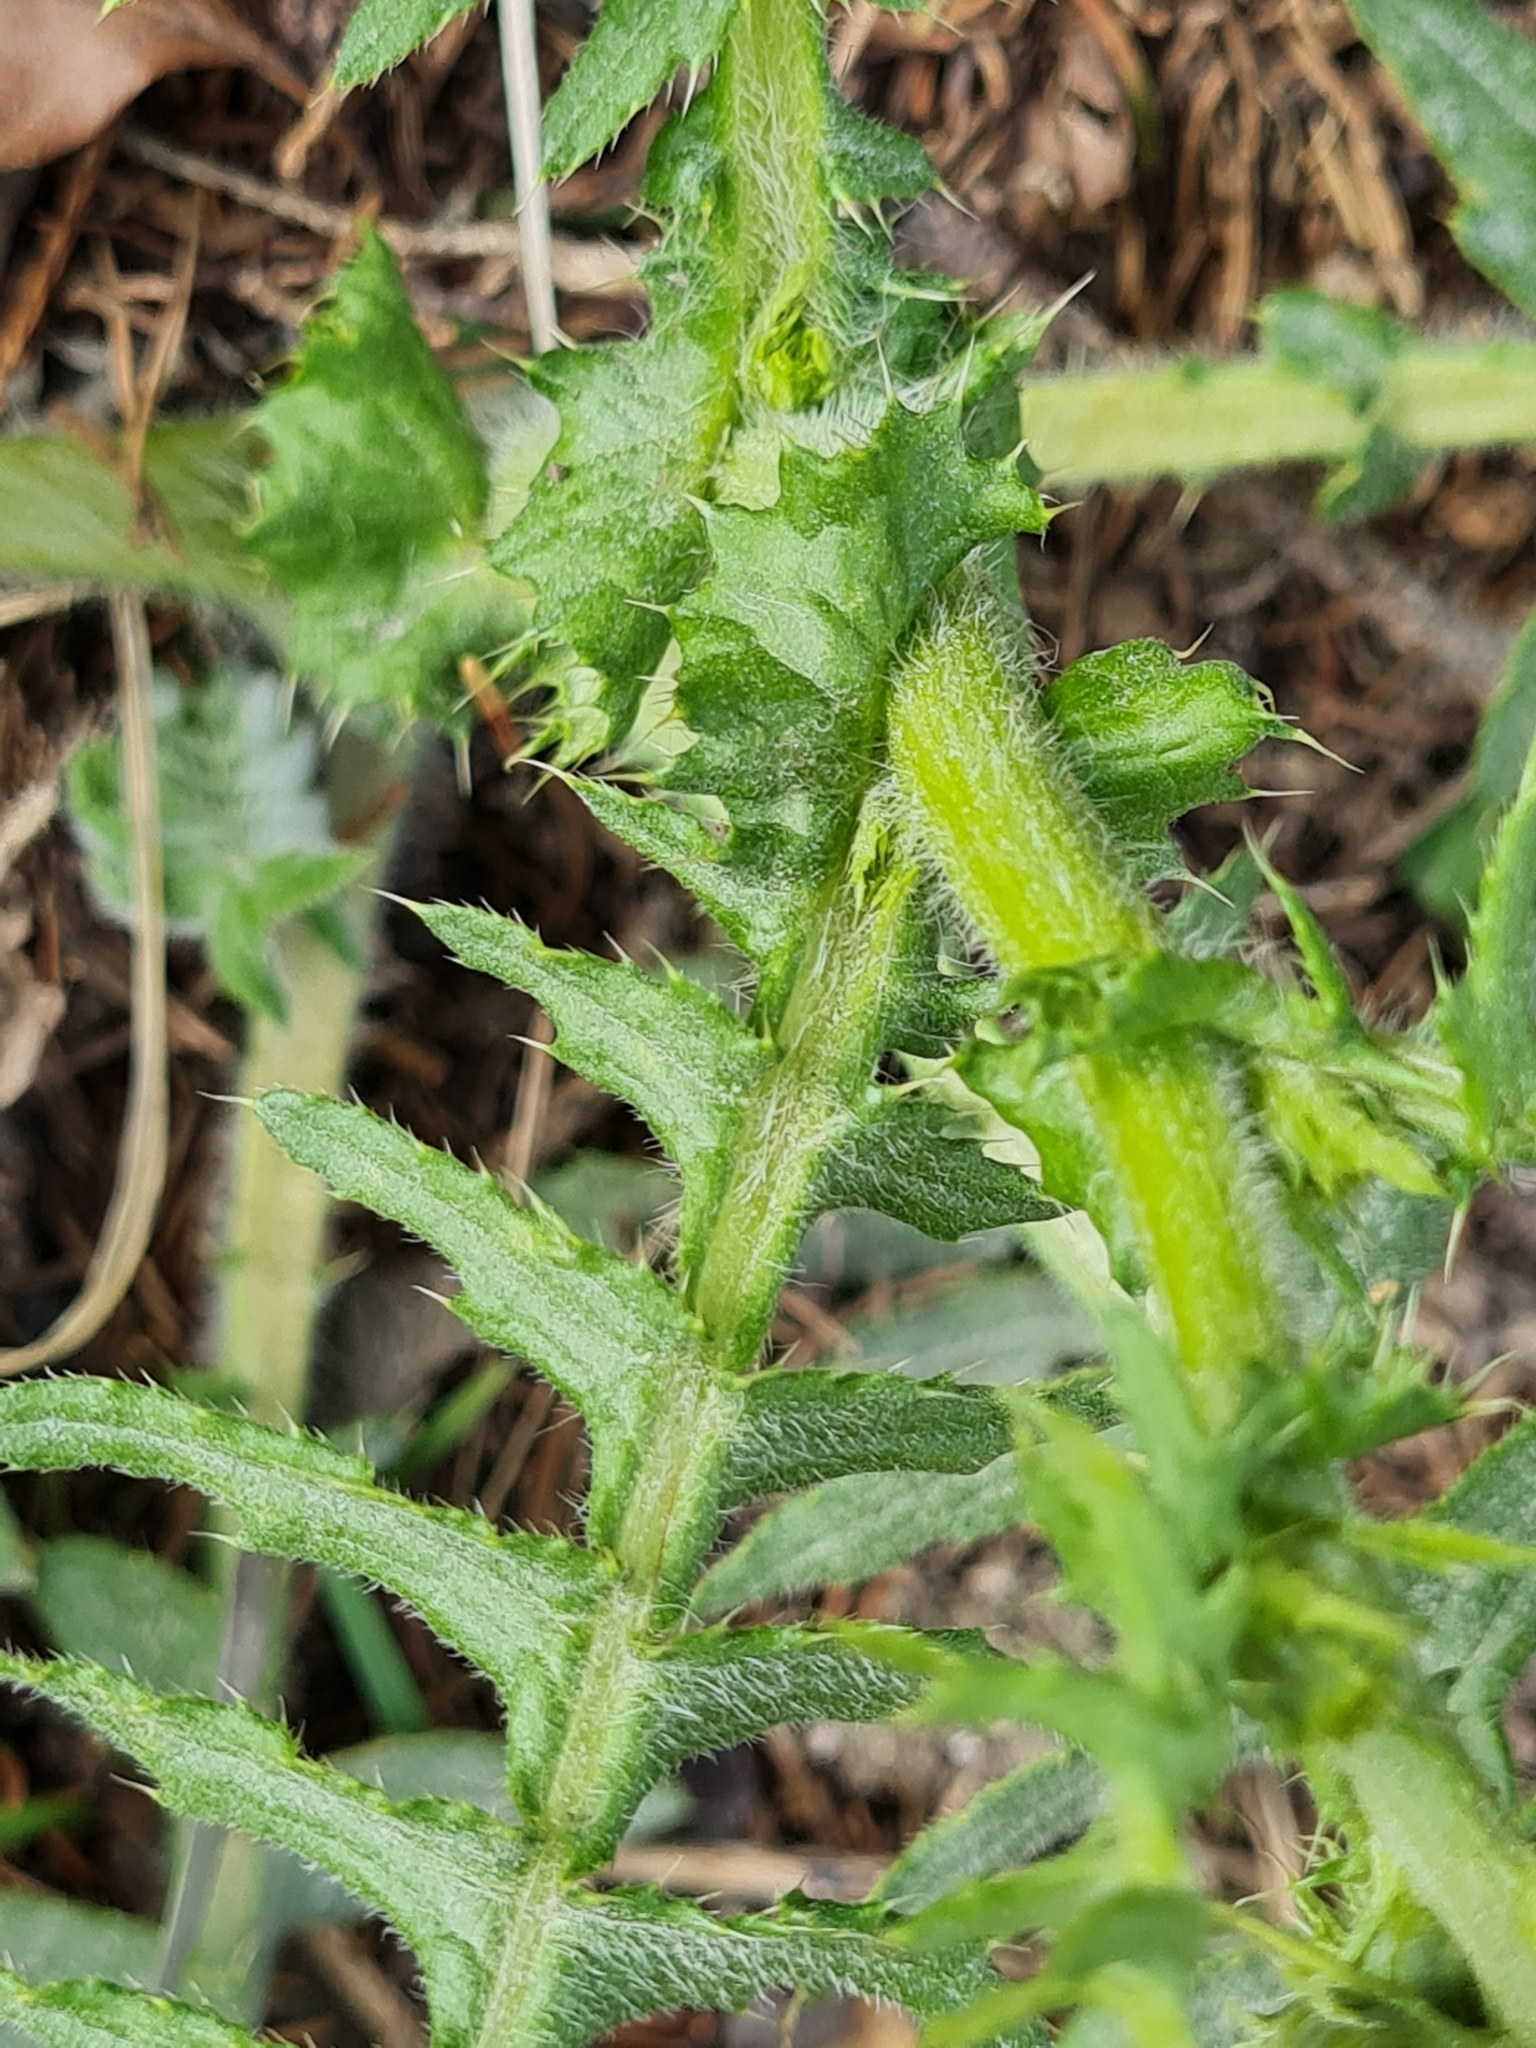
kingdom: Plantae
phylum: Tracheophyta
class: Magnoliopsida
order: Asterales
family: Asteraceae
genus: Cirsium
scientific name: Cirsium erisithales
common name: Yellow thistle
